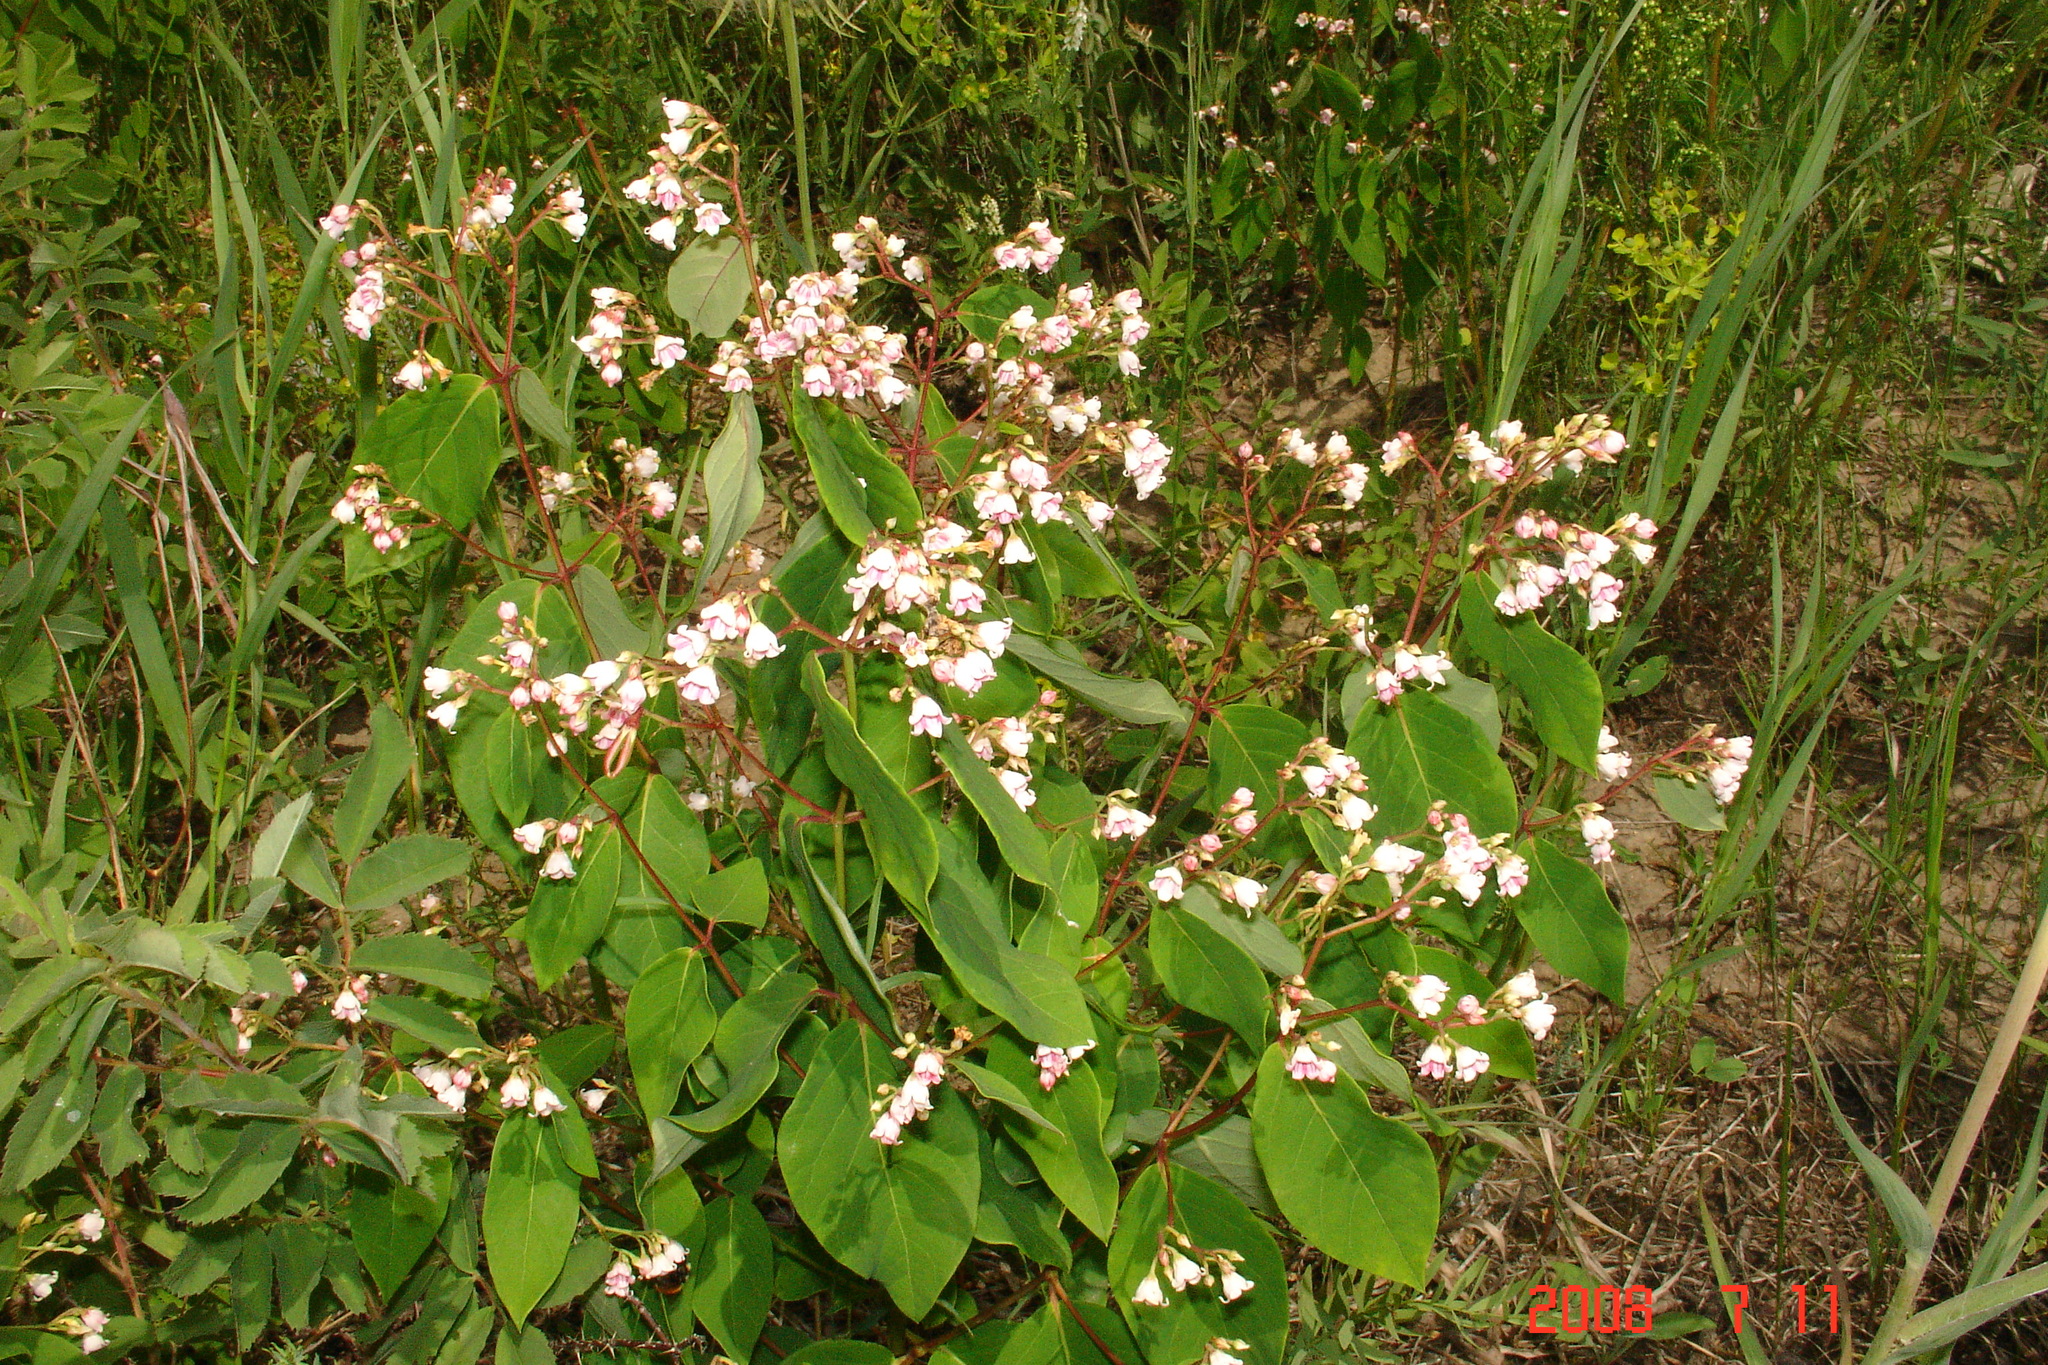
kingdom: Plantae
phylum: Tracheophyta
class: Magnoliopsida
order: Gentianales
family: Apocynaceae
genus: Apocynum
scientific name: Apocynum androsaemifolium
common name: Spreading dogbane
